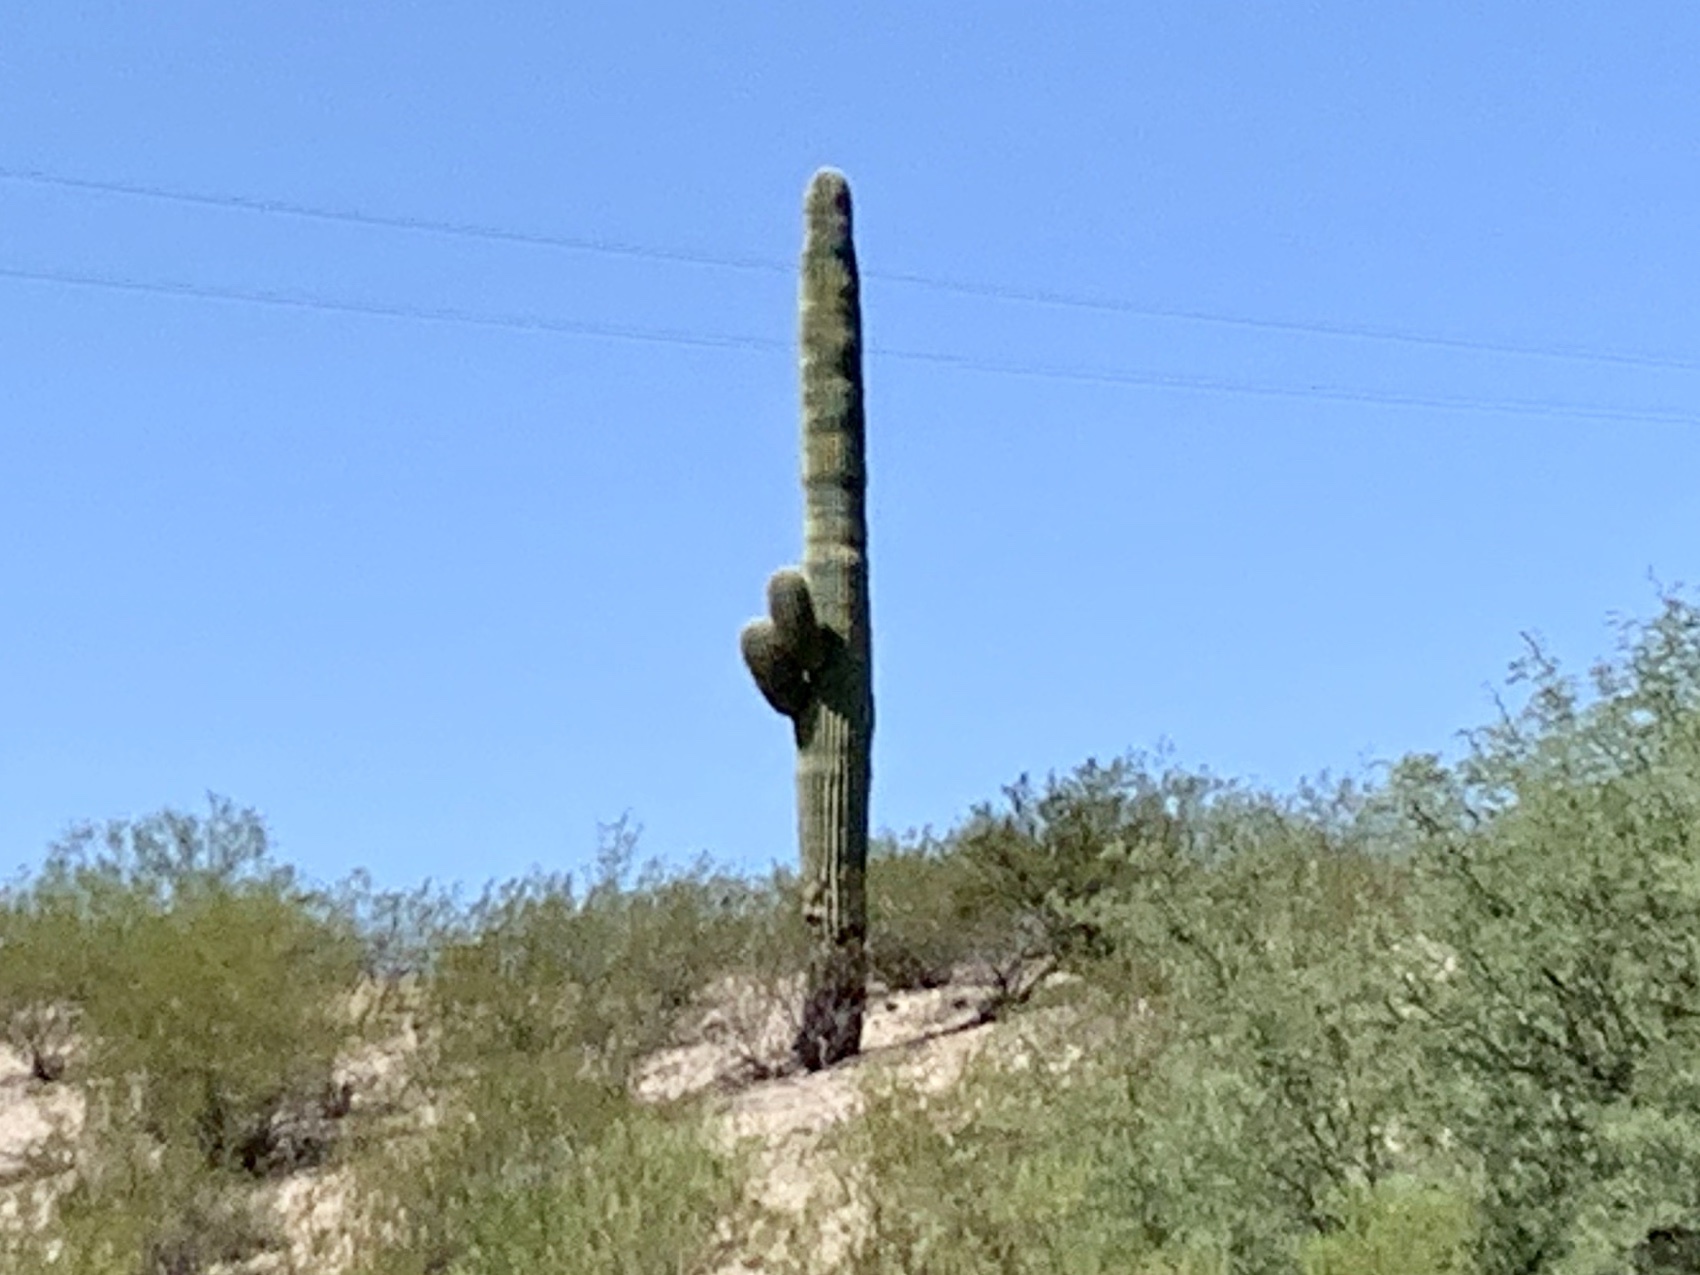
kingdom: Plantae
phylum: Tracheophyta
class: Magnoliopsida
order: Caryophyllales
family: Cactaceae
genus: Carnegiea
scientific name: Carnegiea gigantea
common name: Saguaro
